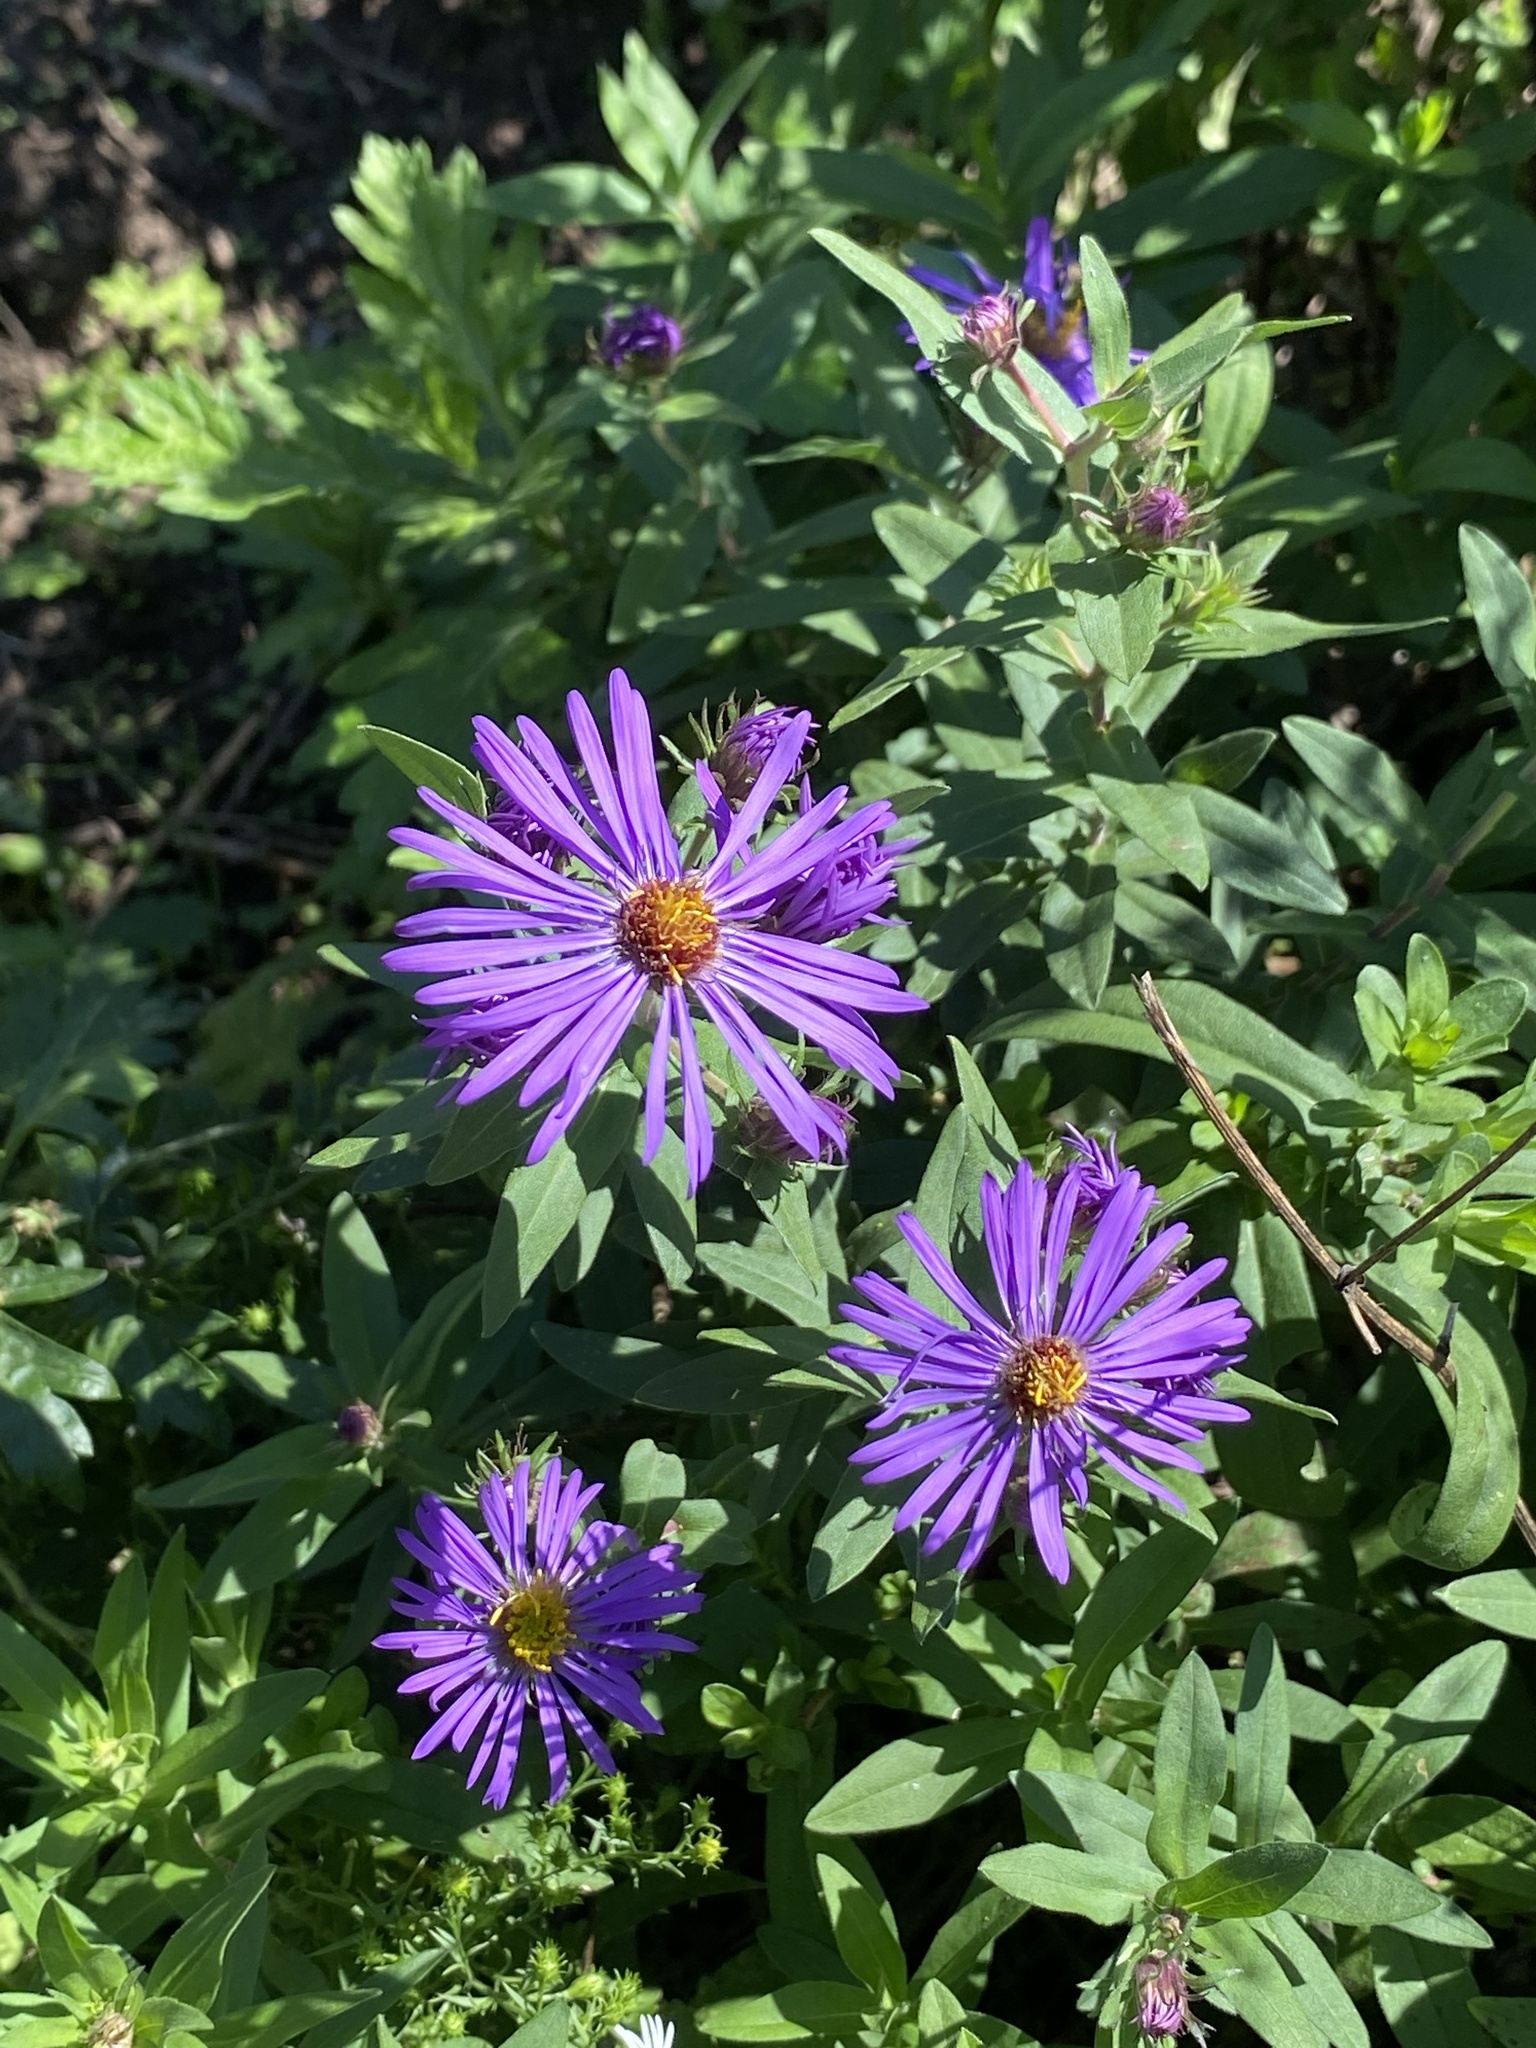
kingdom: Plantae
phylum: Tracheophyta
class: Magnoliopsida
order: Asterales
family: Asteraceae
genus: Symphyotrichum
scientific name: Symphyotrichum novae-angliae
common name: Michaelmas daisy
